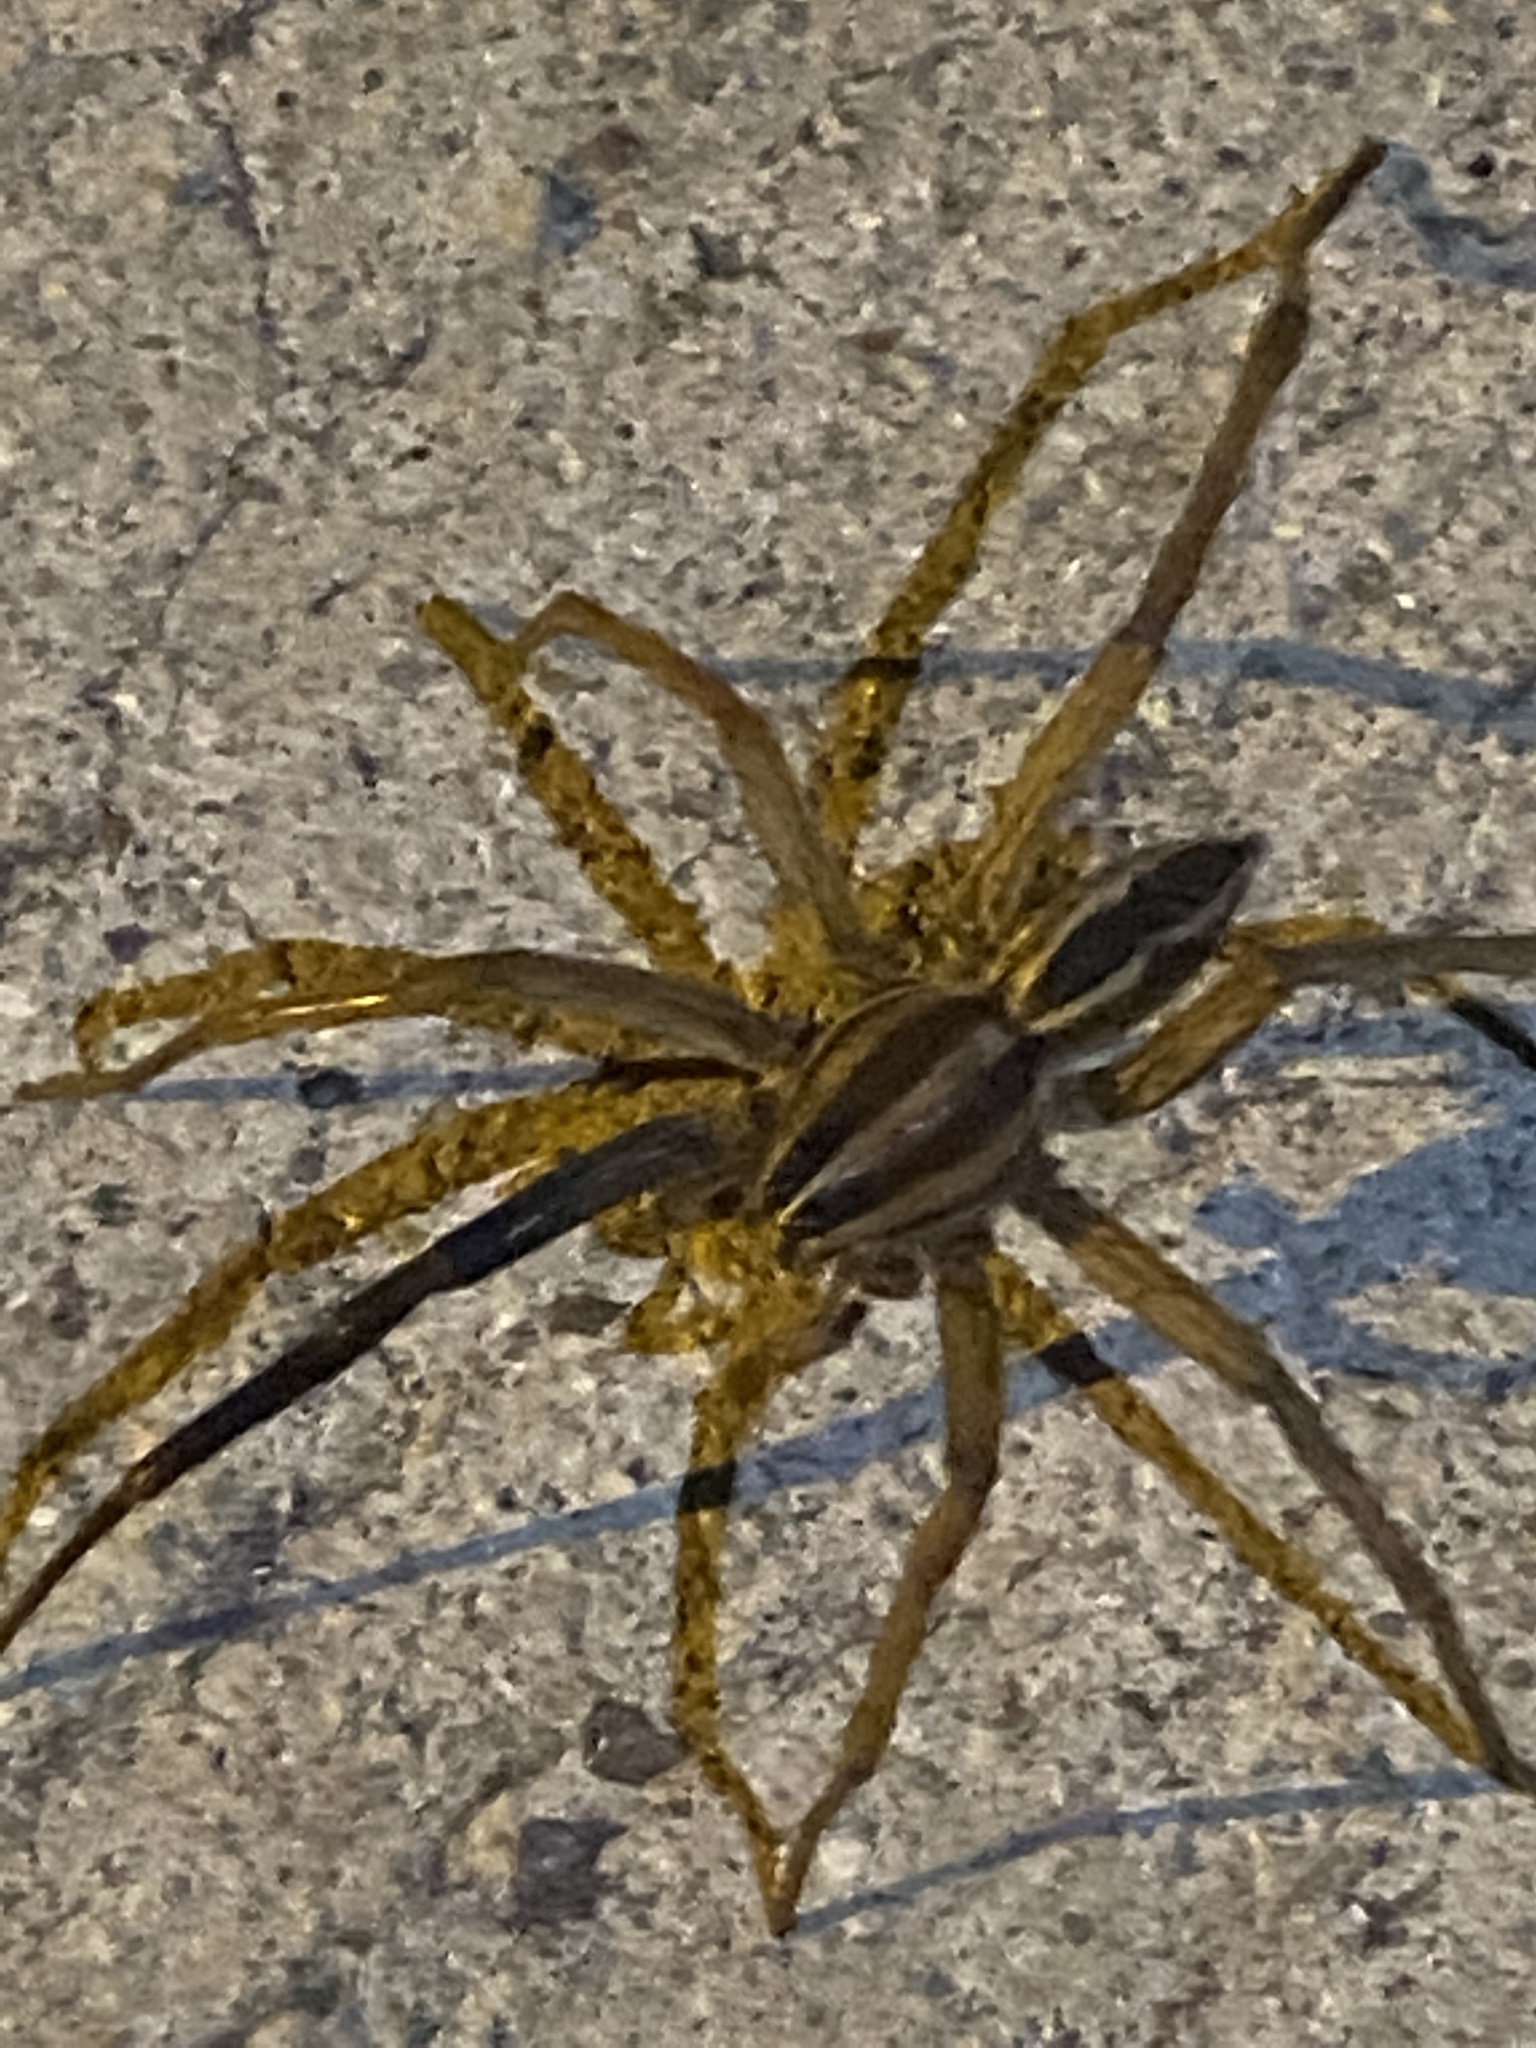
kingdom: Animalia
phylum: Arthropoda
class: Arachnida
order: Araneae
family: Lycosidae
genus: Rabidosa
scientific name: Rabidosa rabida
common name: Rabid wolf spider
